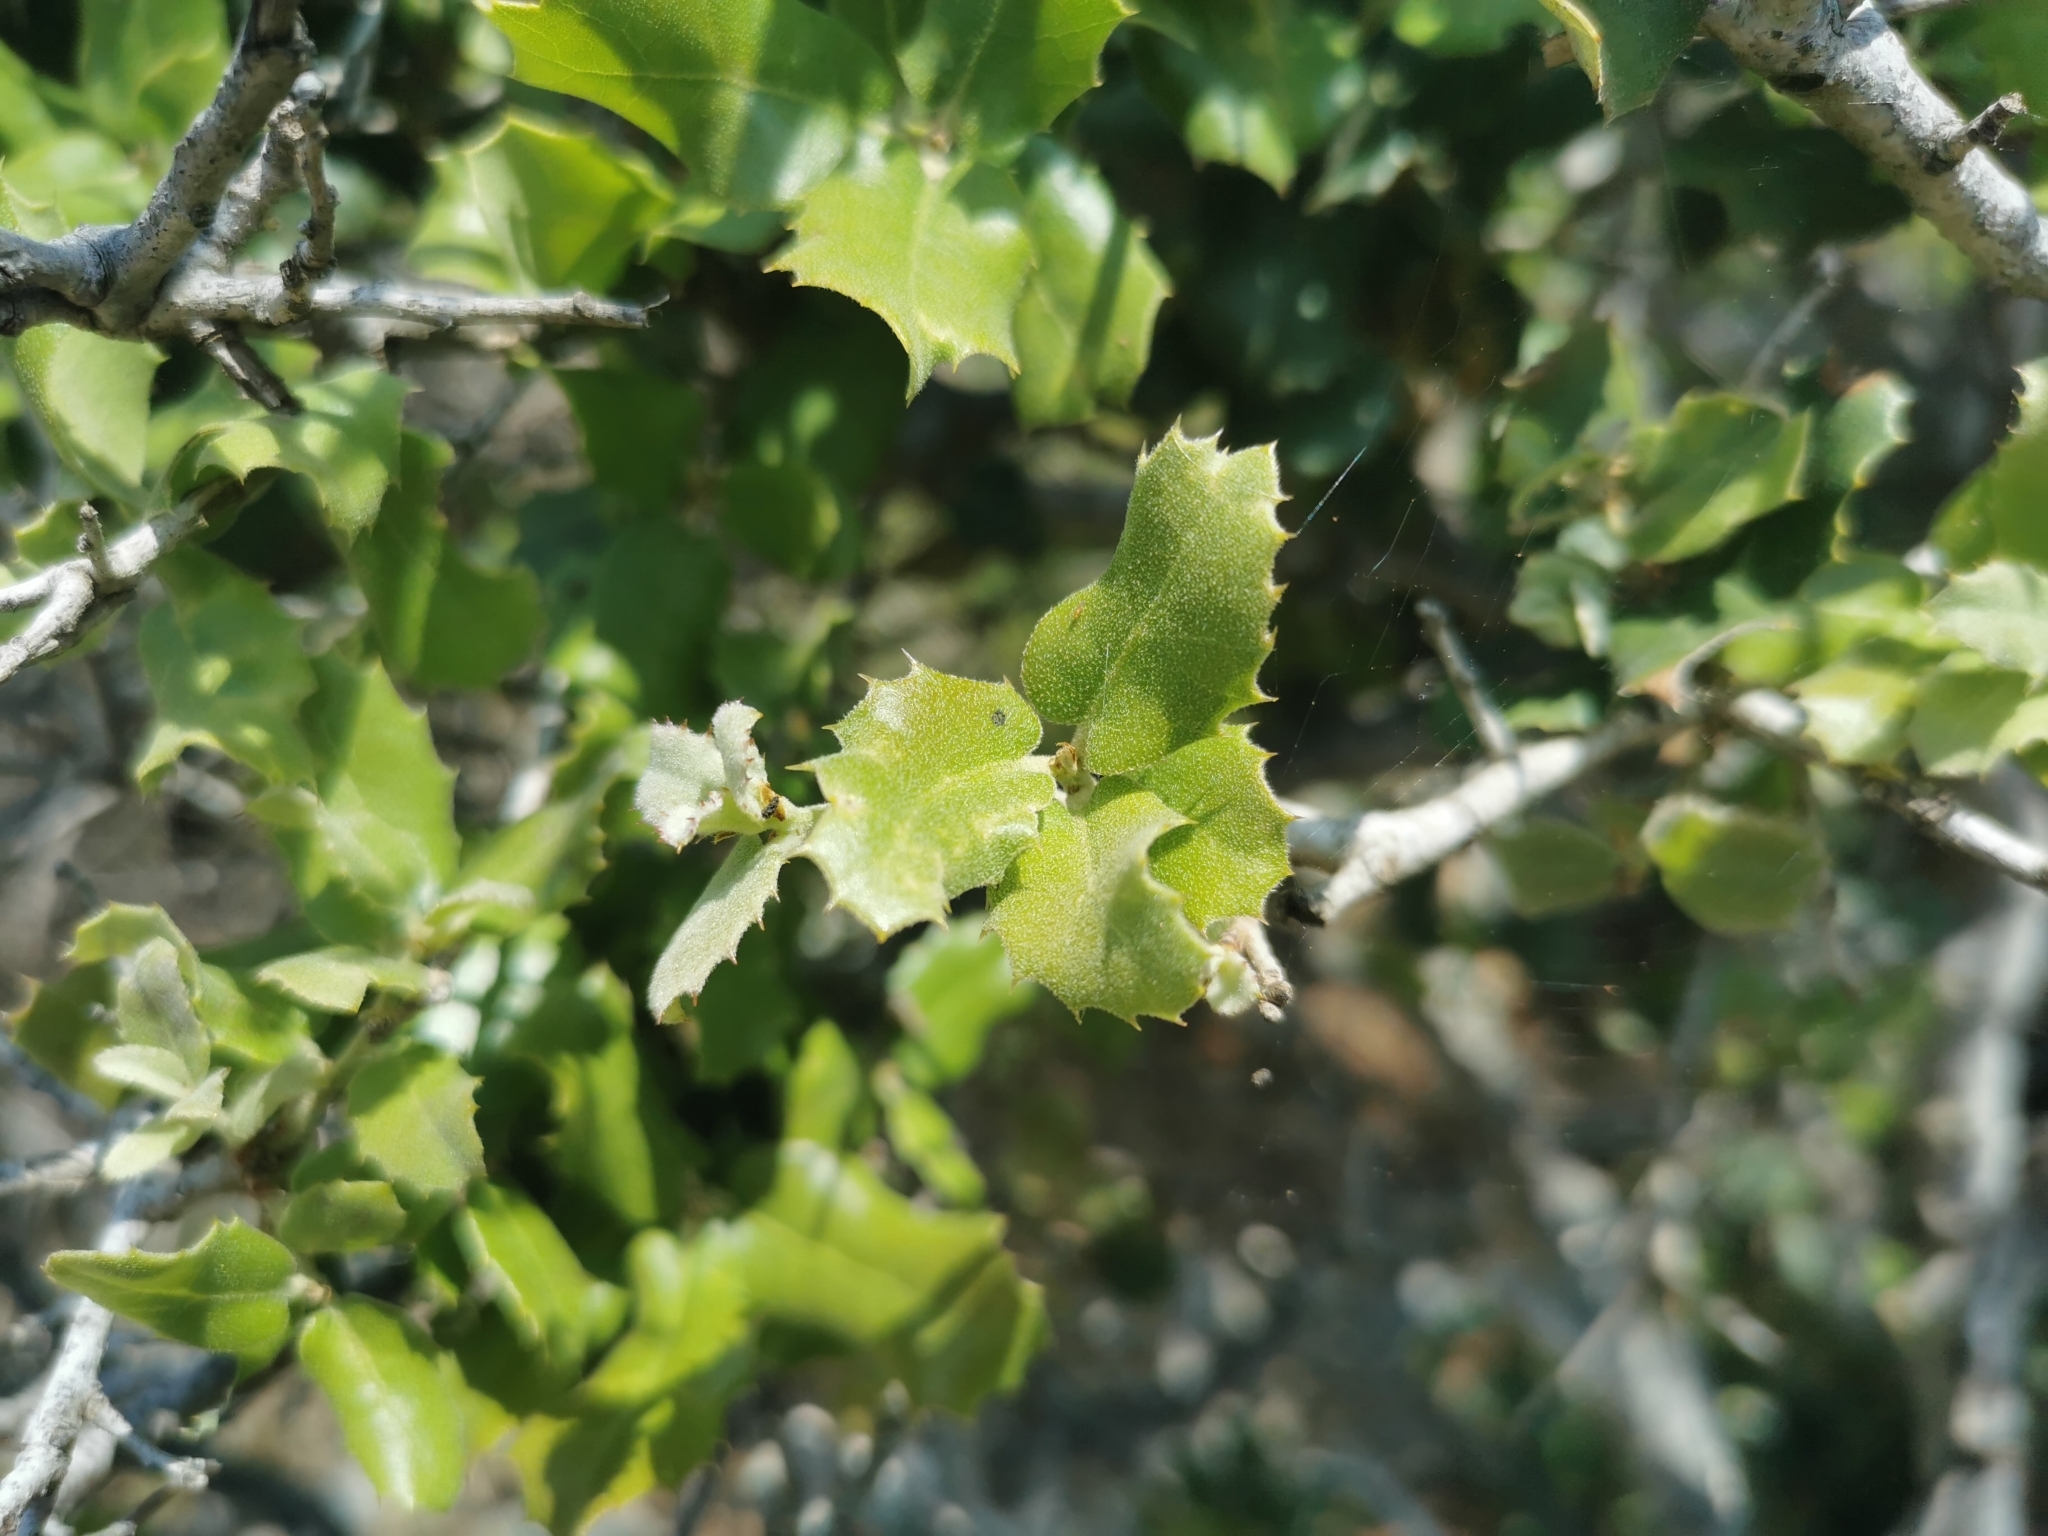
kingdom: Plantae
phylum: Tracheophyta
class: Magnoliopsida
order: Fagales
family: Fagaceae
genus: Quercus
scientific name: Quercus coccifera
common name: Kermes oak
